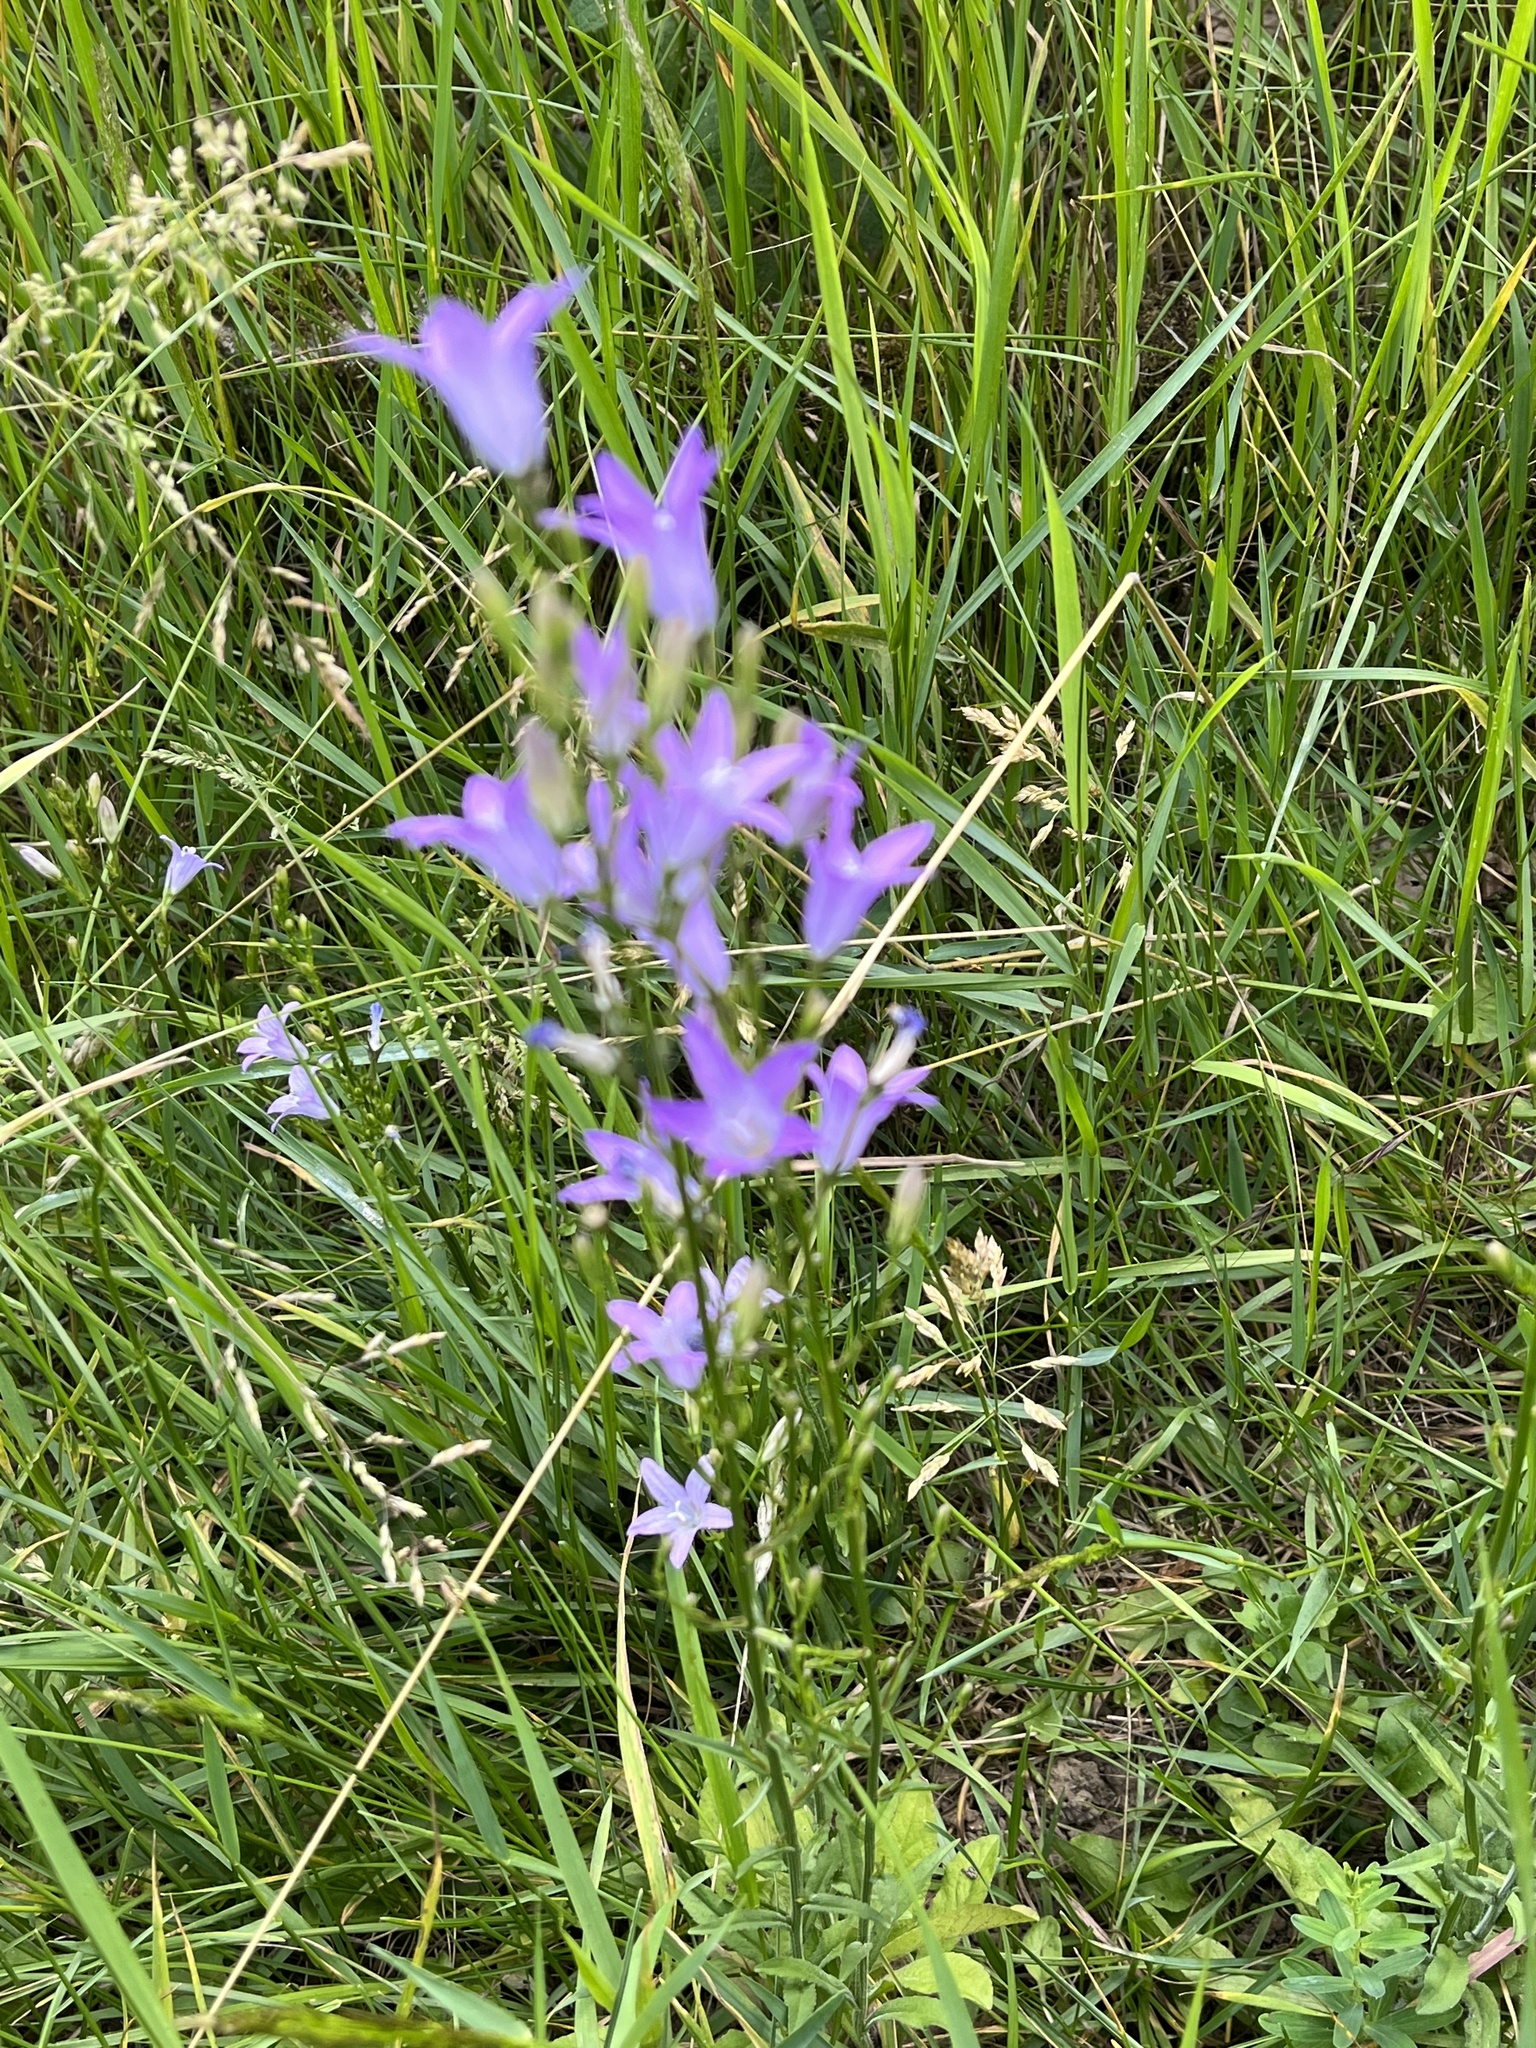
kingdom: Plantae
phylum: Tracheophyta
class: Magnoliopsida
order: Asterales
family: Campanulaceae
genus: Campanula
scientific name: Campanula rapunculus
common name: Rampion bellflower
